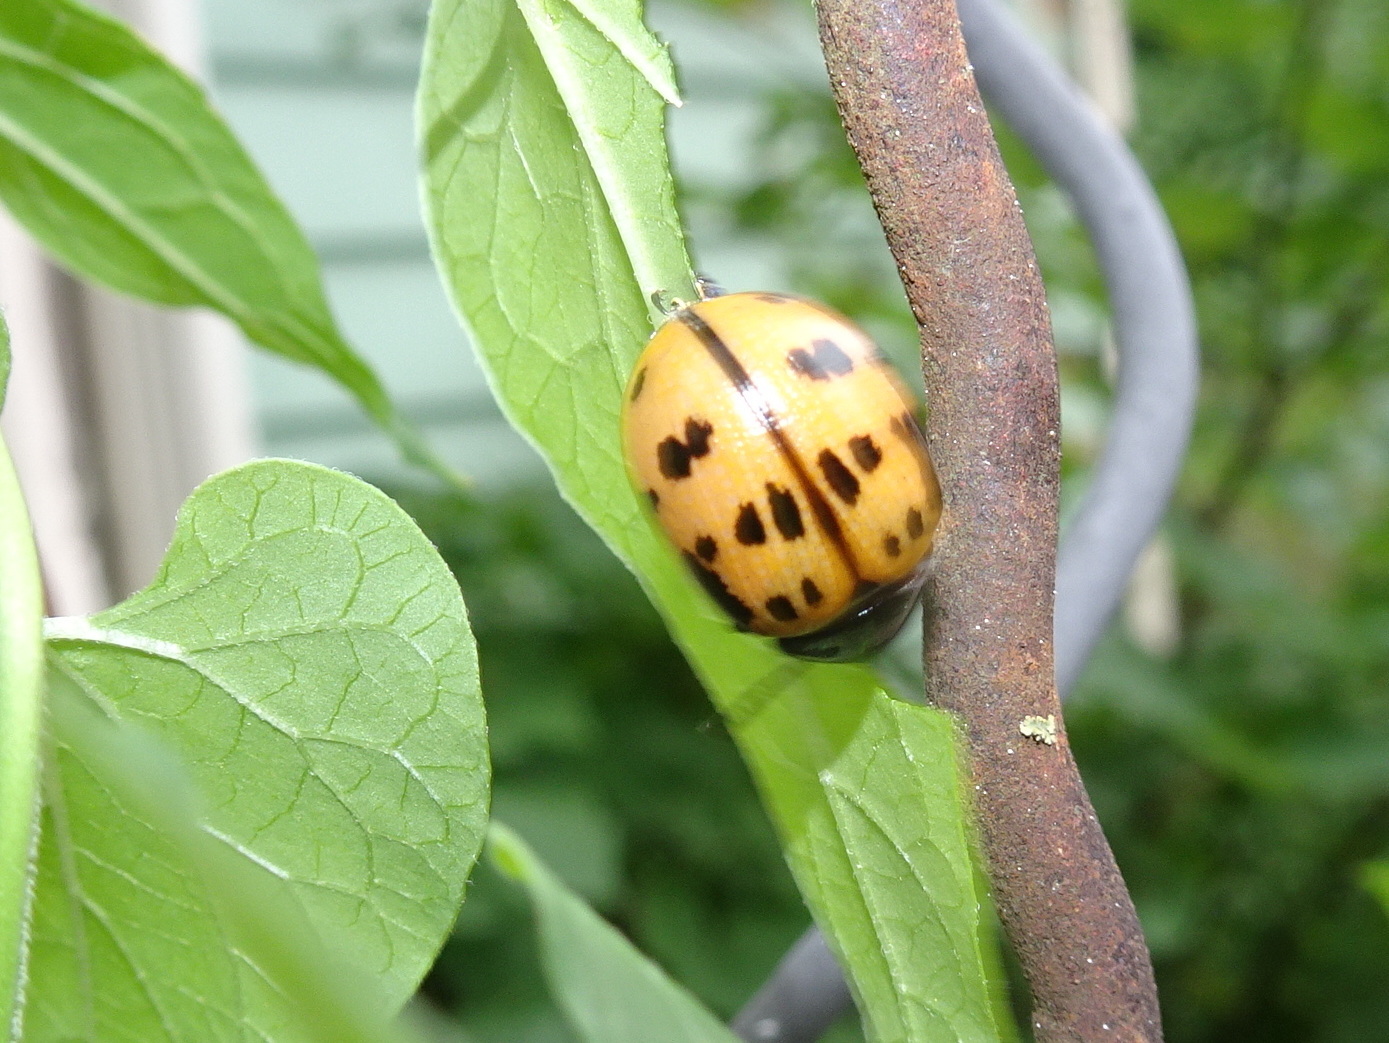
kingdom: Animalia
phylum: Arthropoda
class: Insecta
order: Coleoptera
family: Chrysomelidae
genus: Labidomera
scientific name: Labidomera clivicollis
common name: Swamp milkweed leaf beetle
